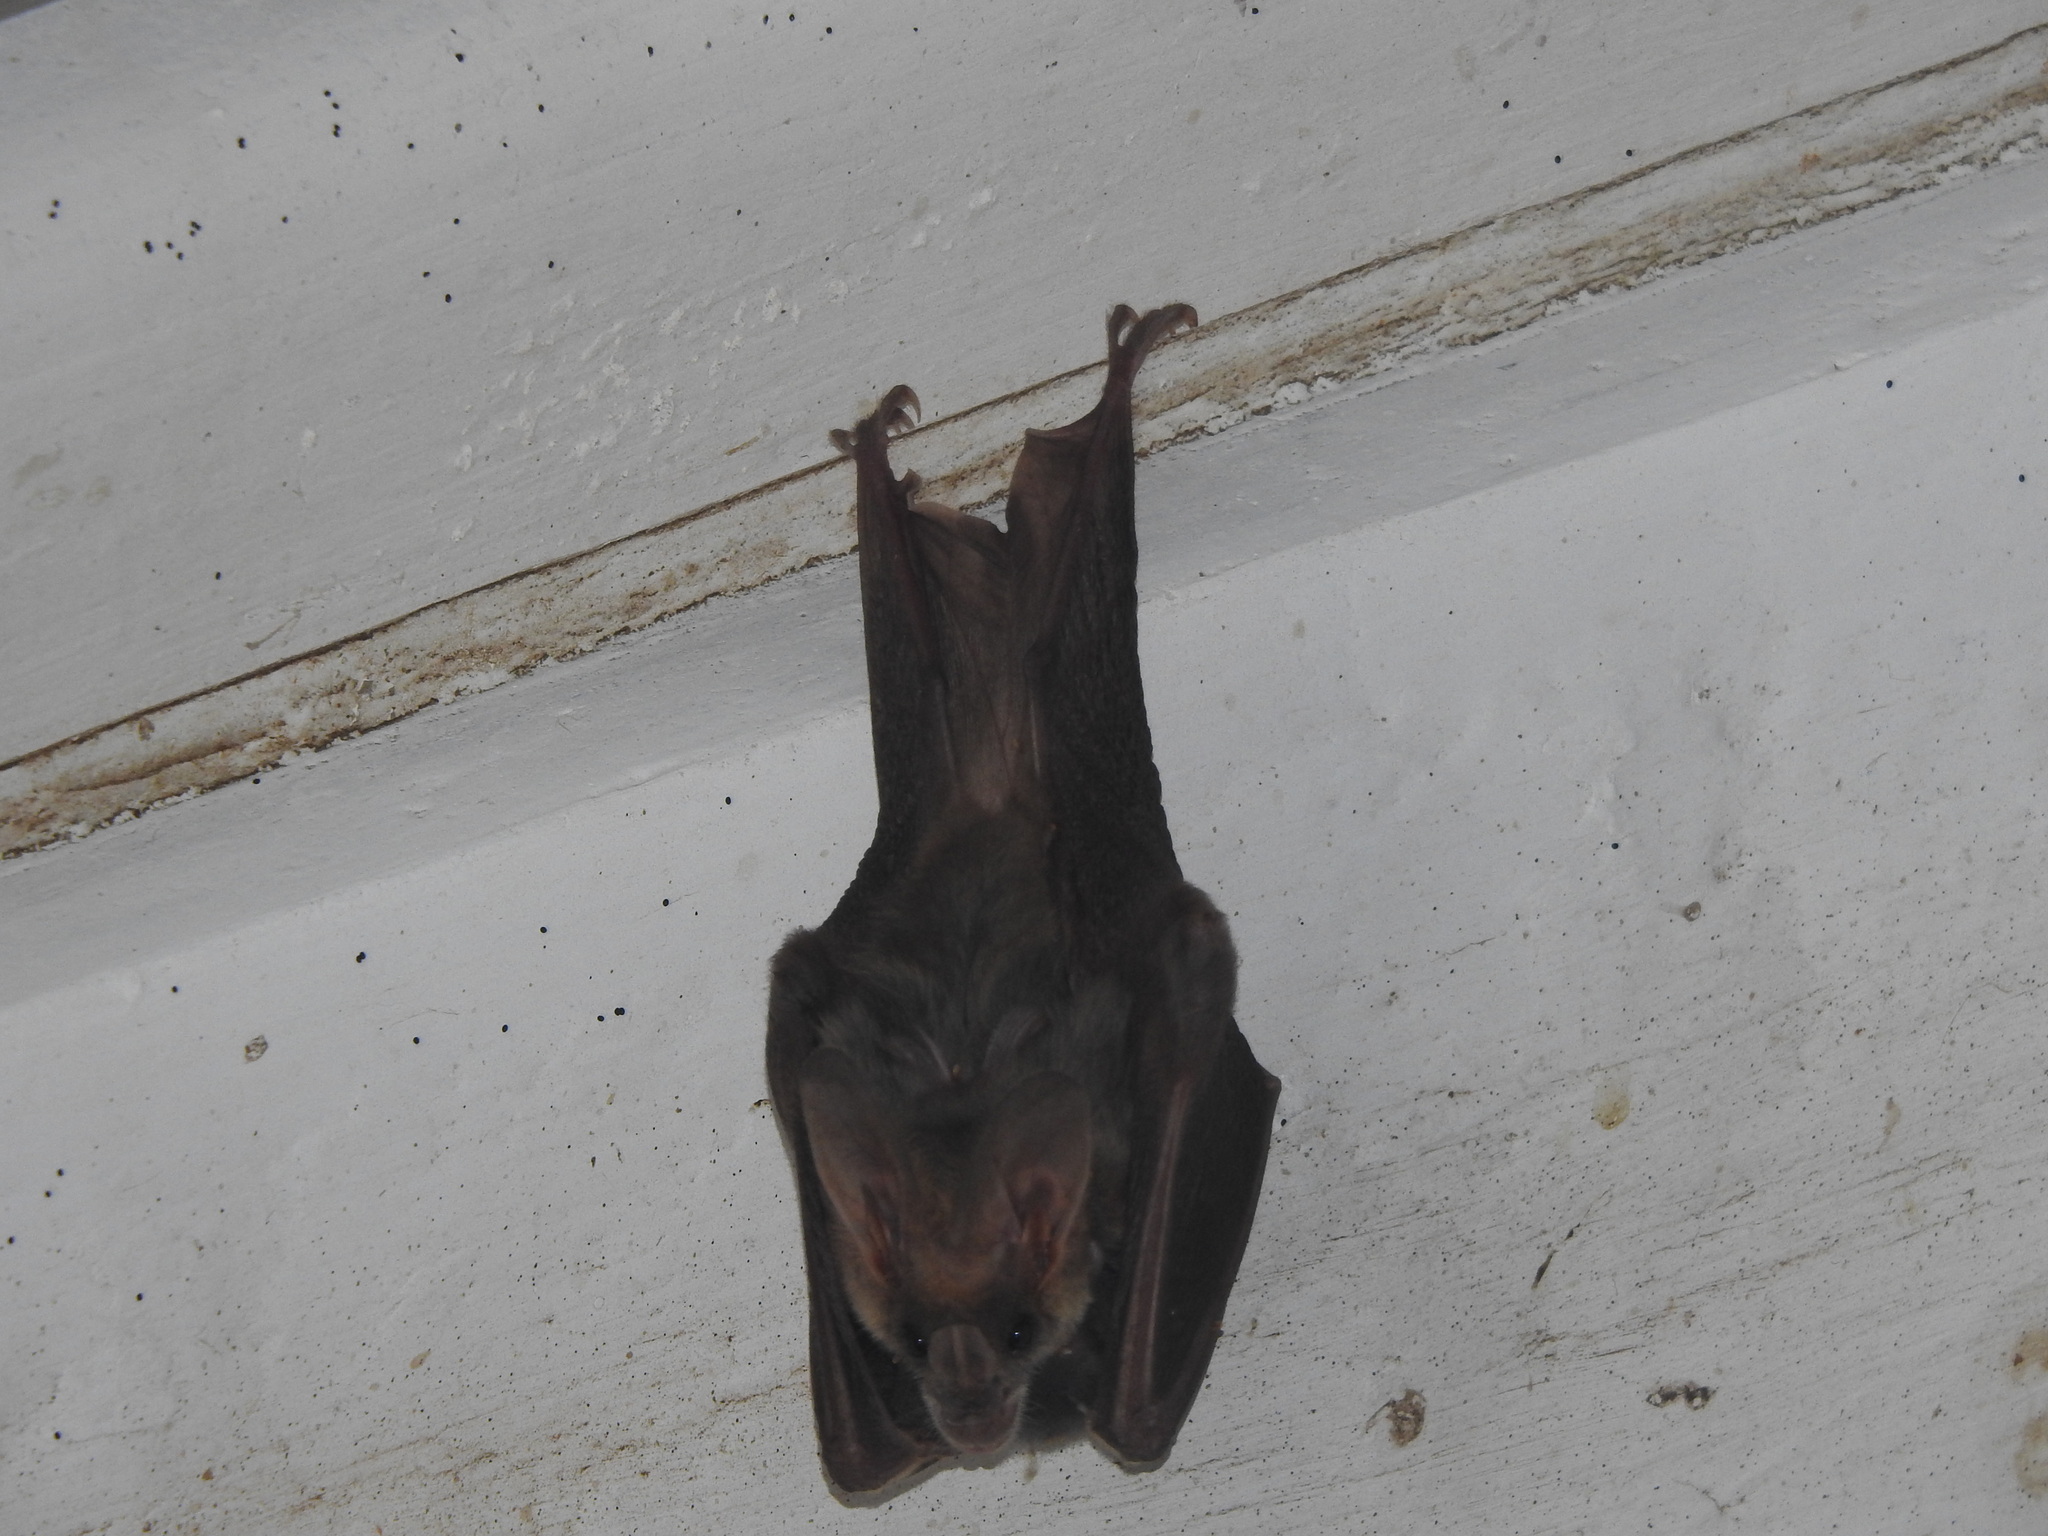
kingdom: Animalia
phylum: Chordata
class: Mammalia
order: Chiroptera
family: Megadermatidae
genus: Lyroderma
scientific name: Lyroderma lyra
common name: Greater false vampire bat
